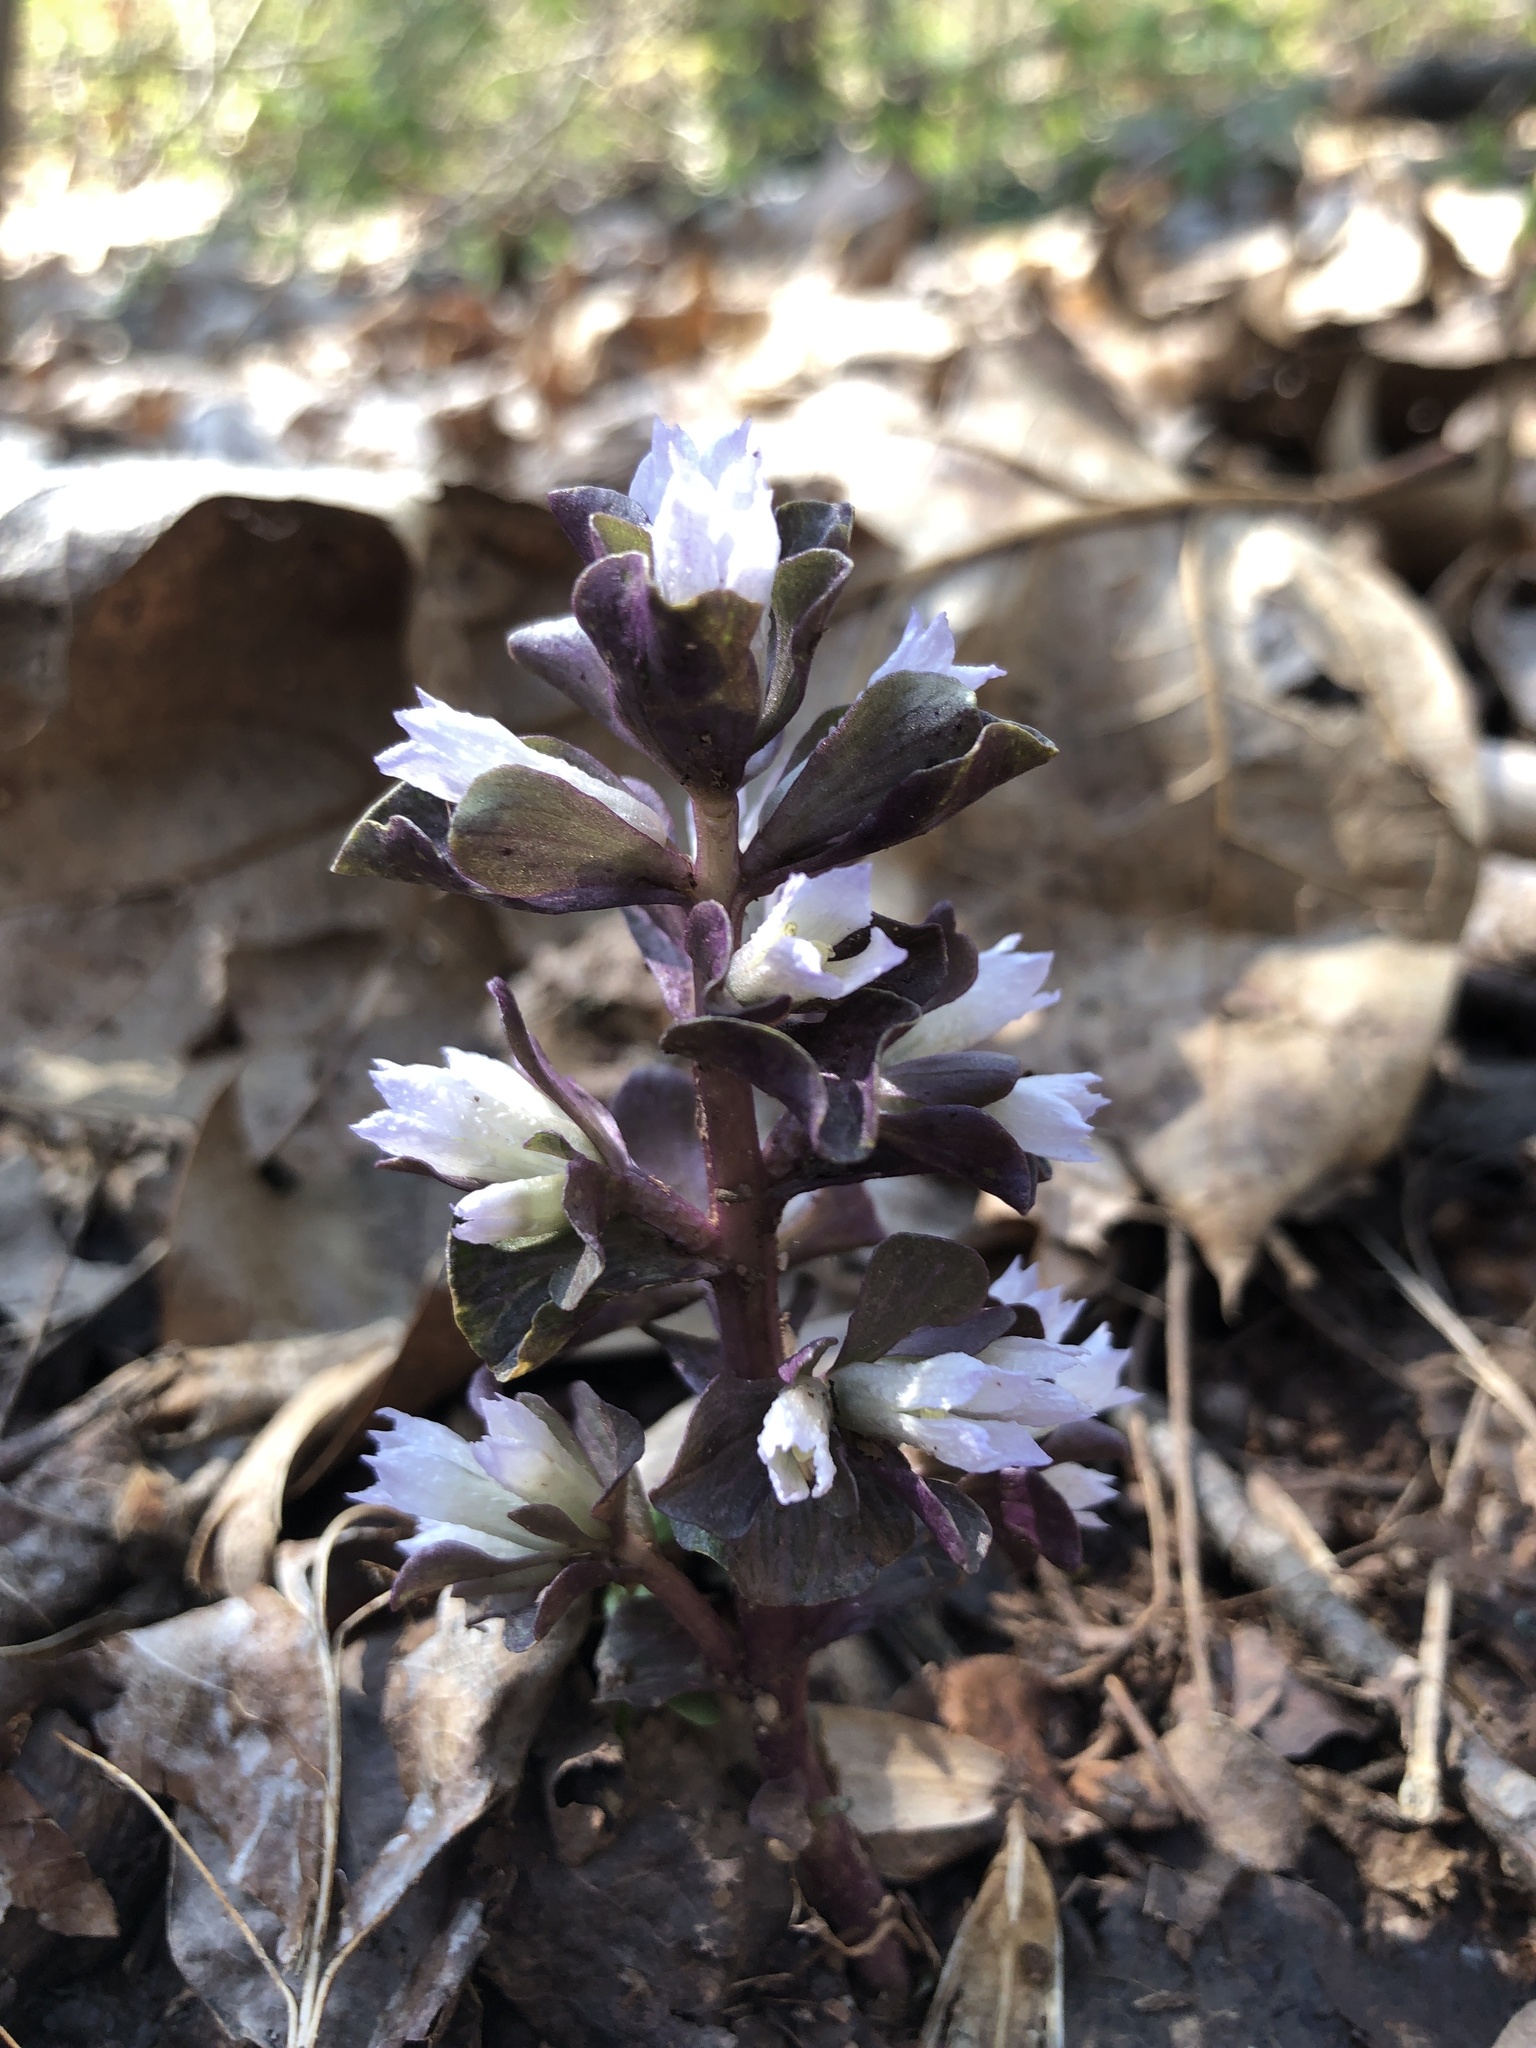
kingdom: Plantae
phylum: Tracheophyta
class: Magnoliopsida
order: Gentianales
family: Gentianaceae
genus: Obolaria
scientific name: Obolaria virginica
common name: Pennywort
